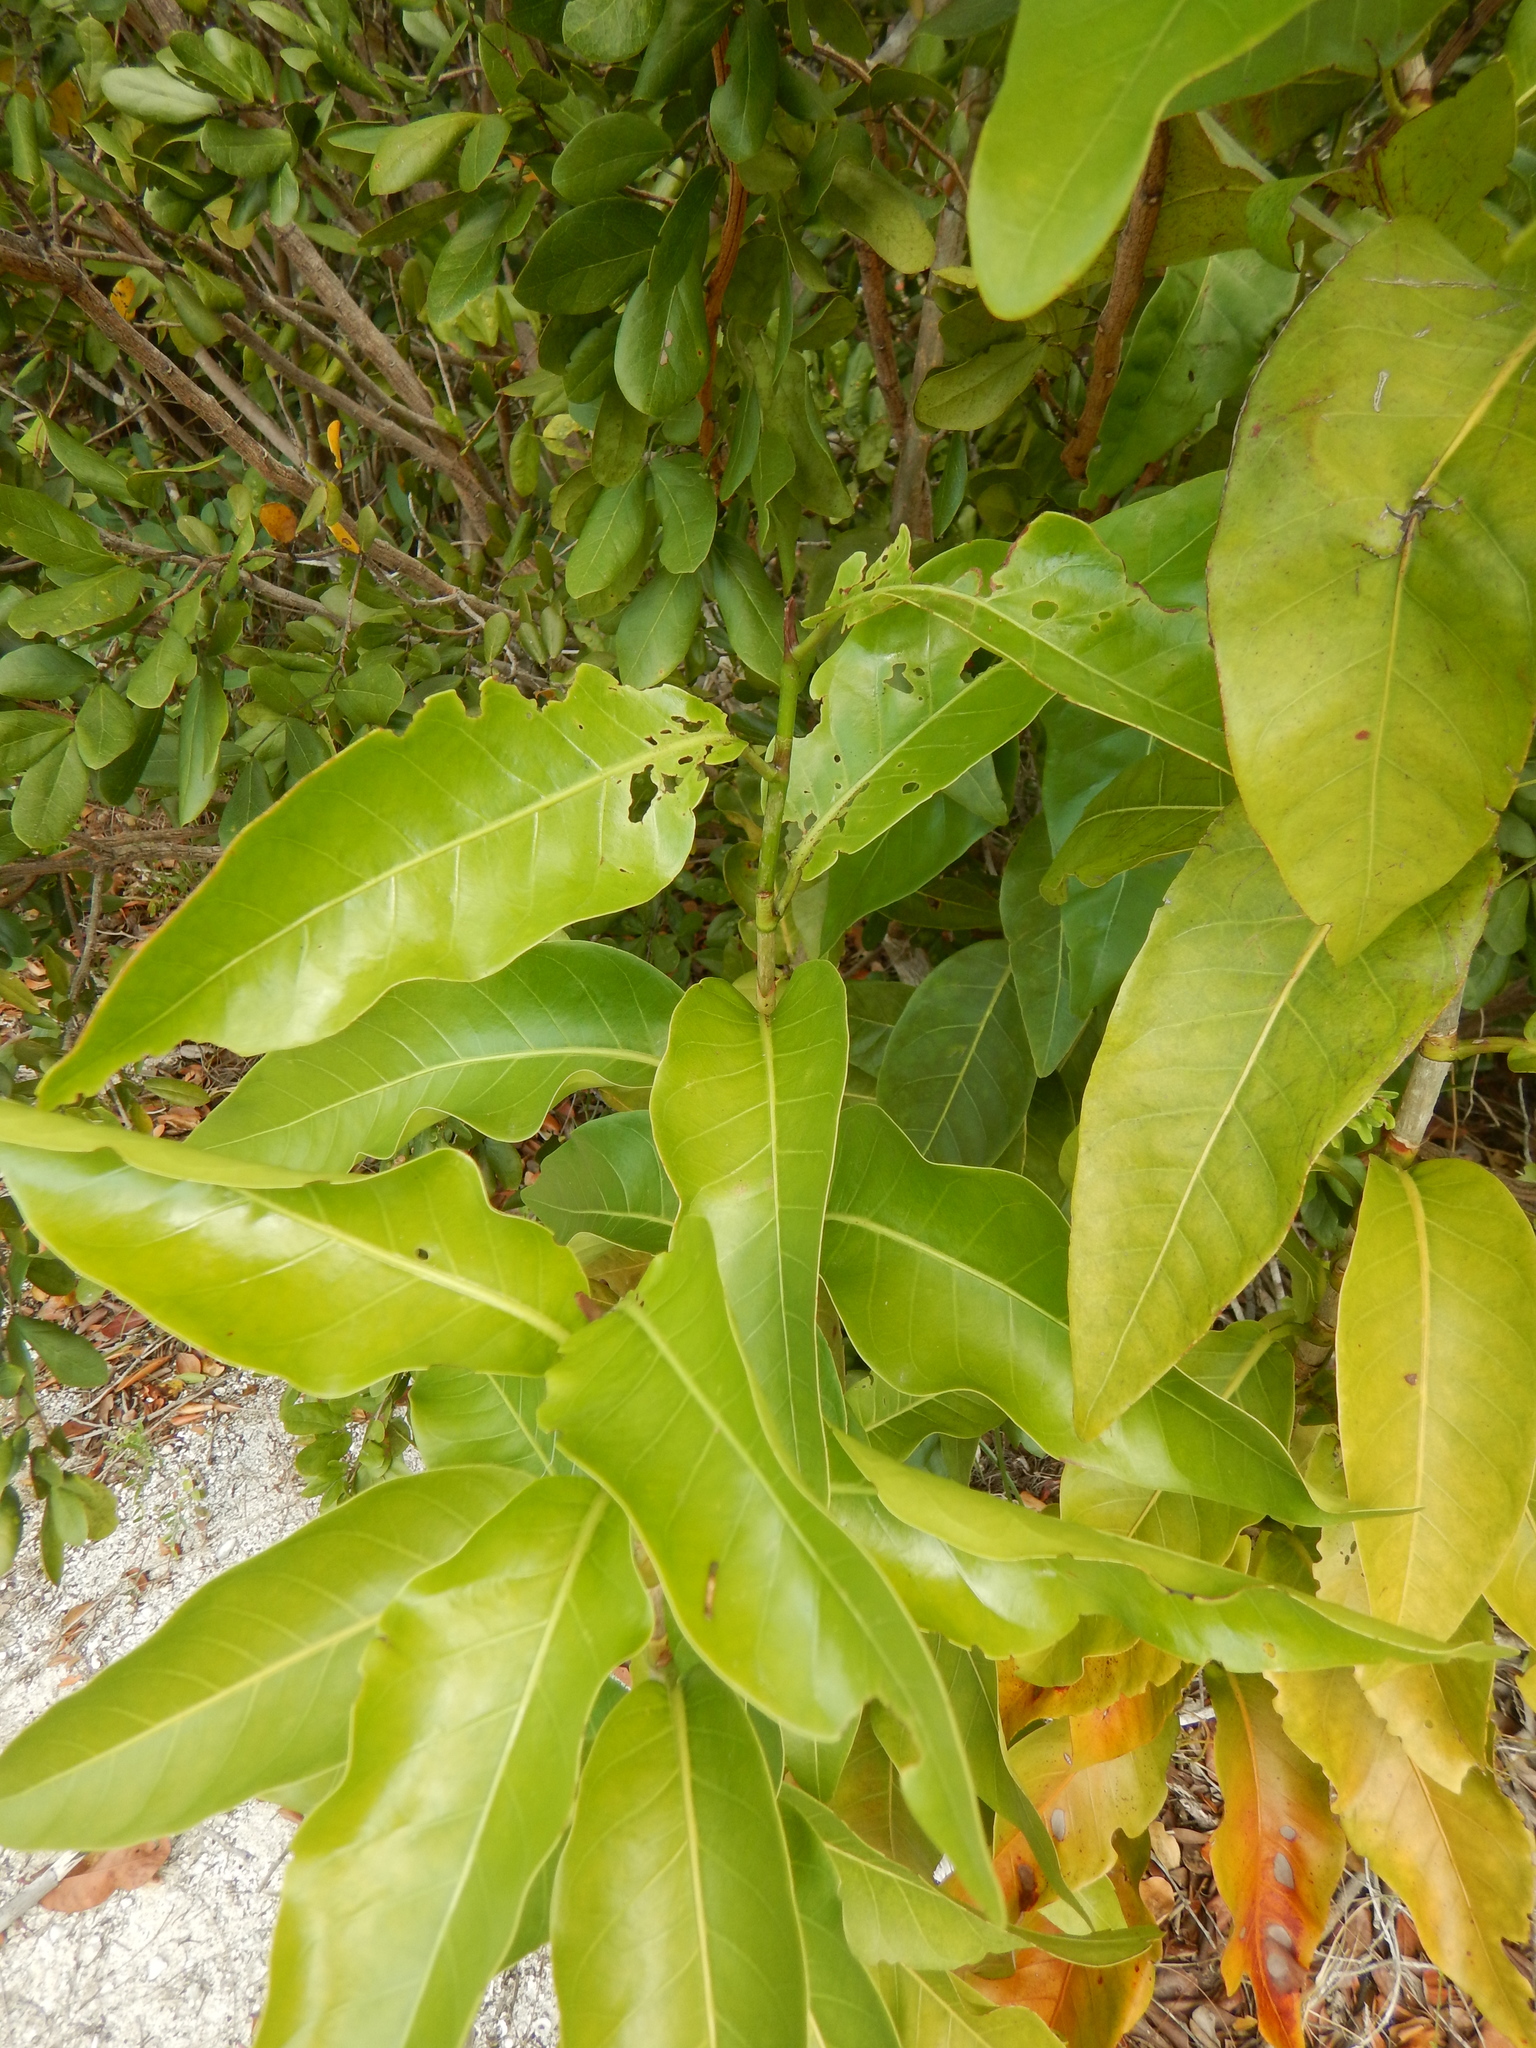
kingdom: Plantae
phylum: Tracheophyta
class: Magnoliopsida
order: Caryophyllales
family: Polygonaceae
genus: Coccoloba
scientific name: Coccoloba diversifolia
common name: Pigeon-plum
